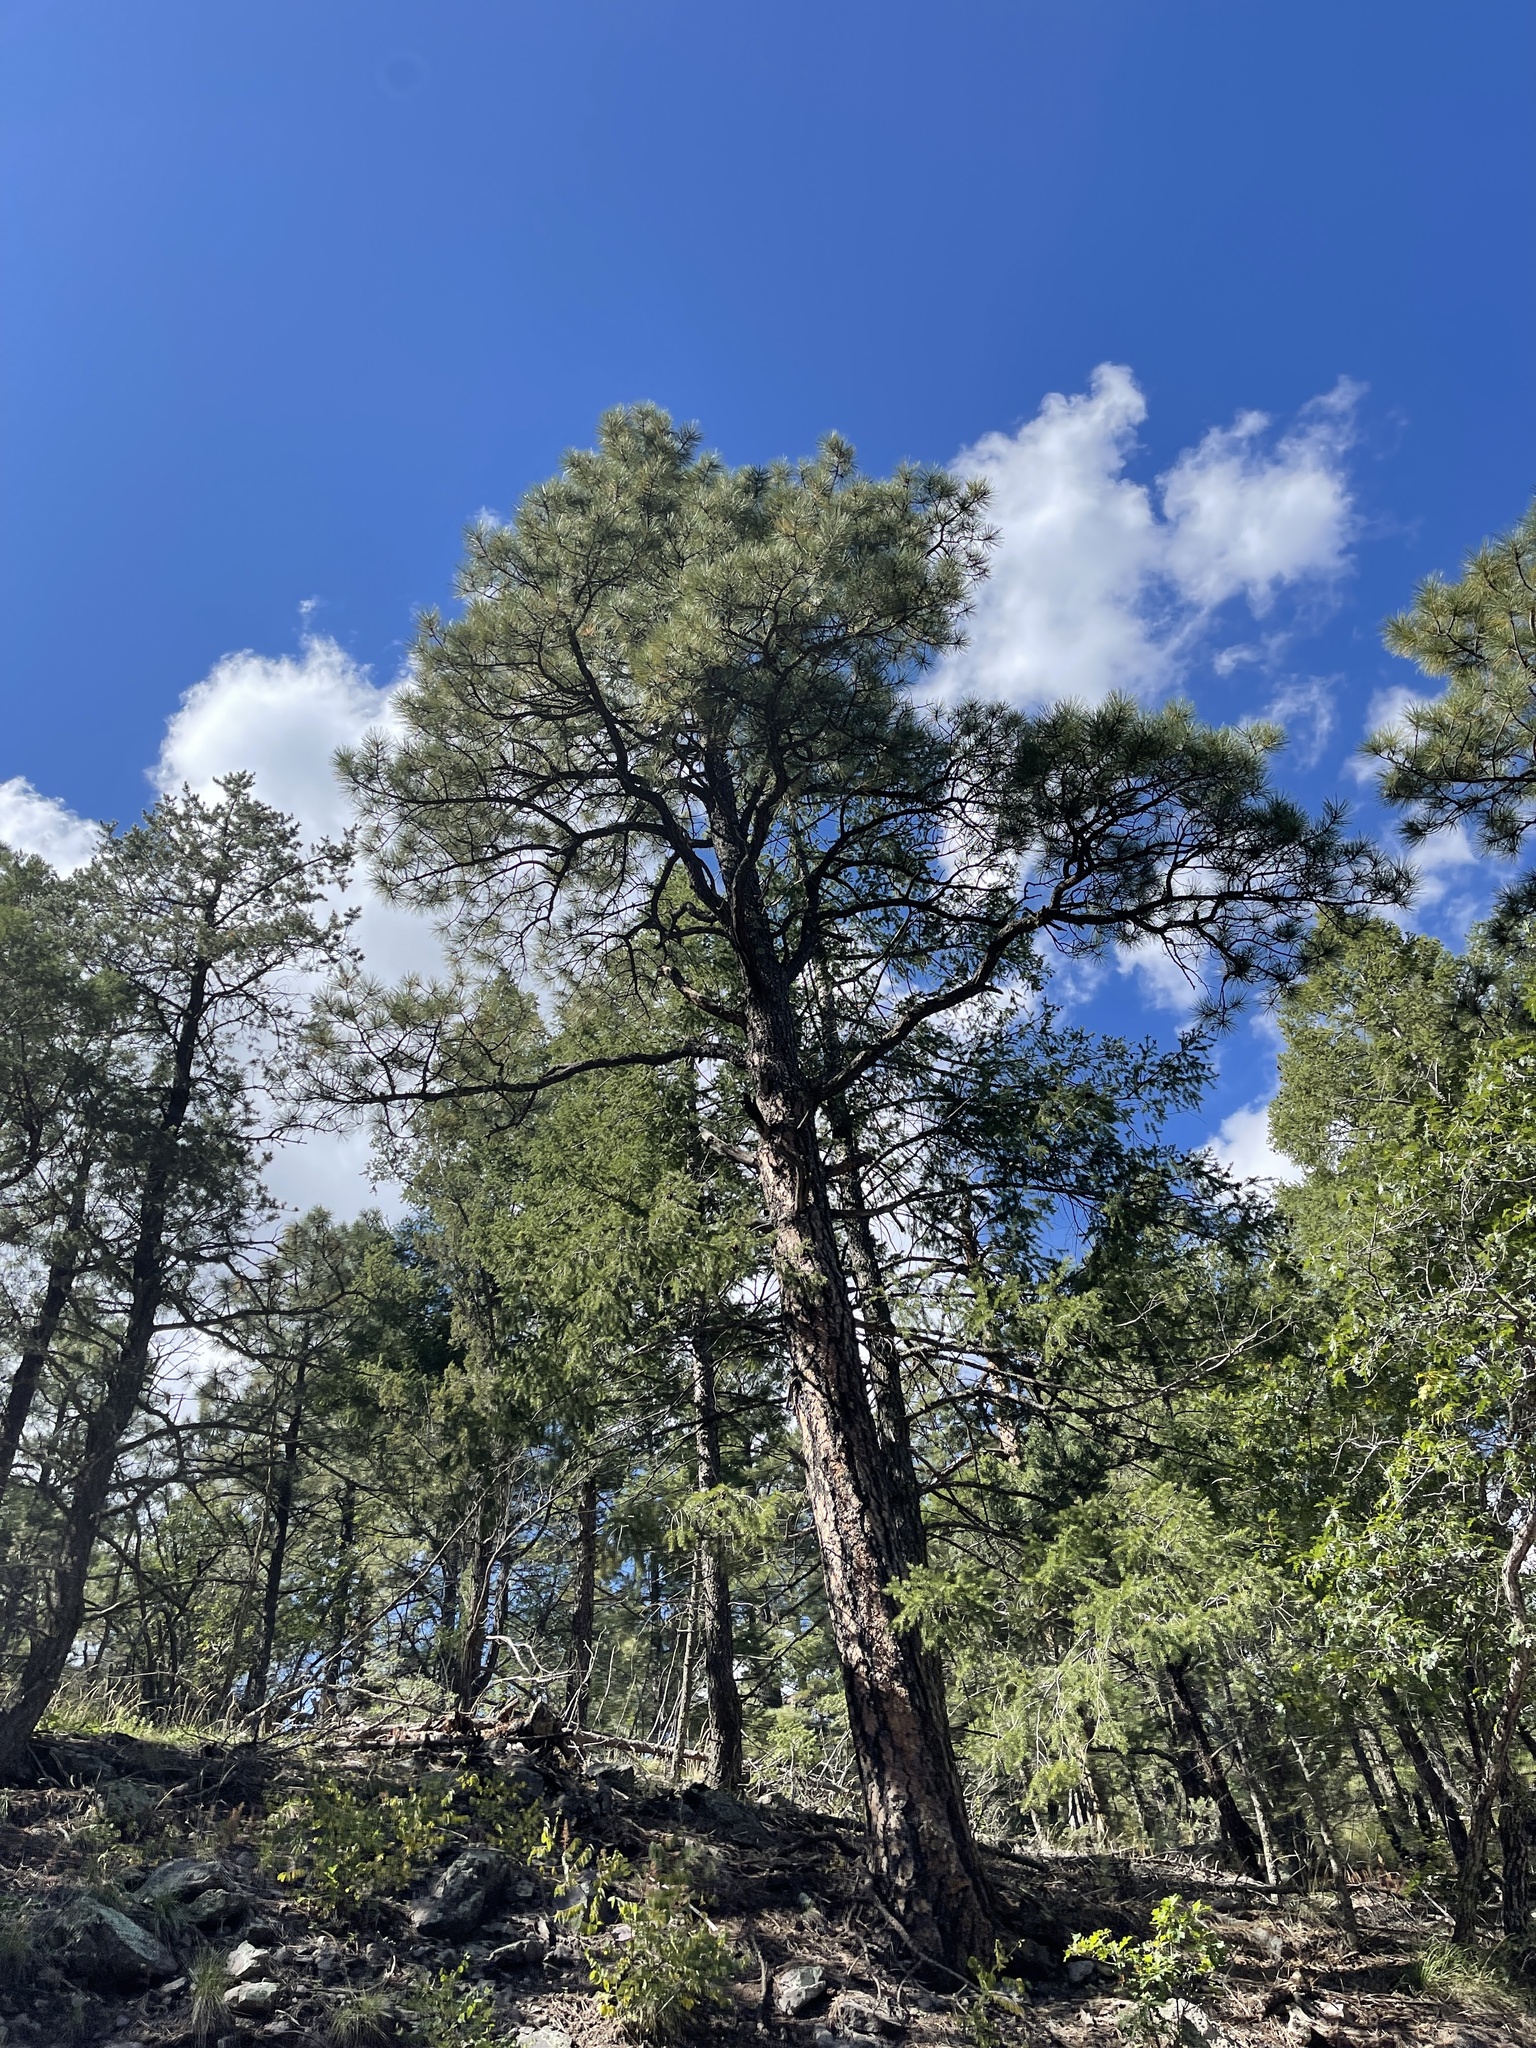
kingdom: Plantae
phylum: Tracheophyta
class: Pinopsida
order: Pinales
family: Pinaceae
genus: Pinus
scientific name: Pinus ponderosa
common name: Western yellow-pine
